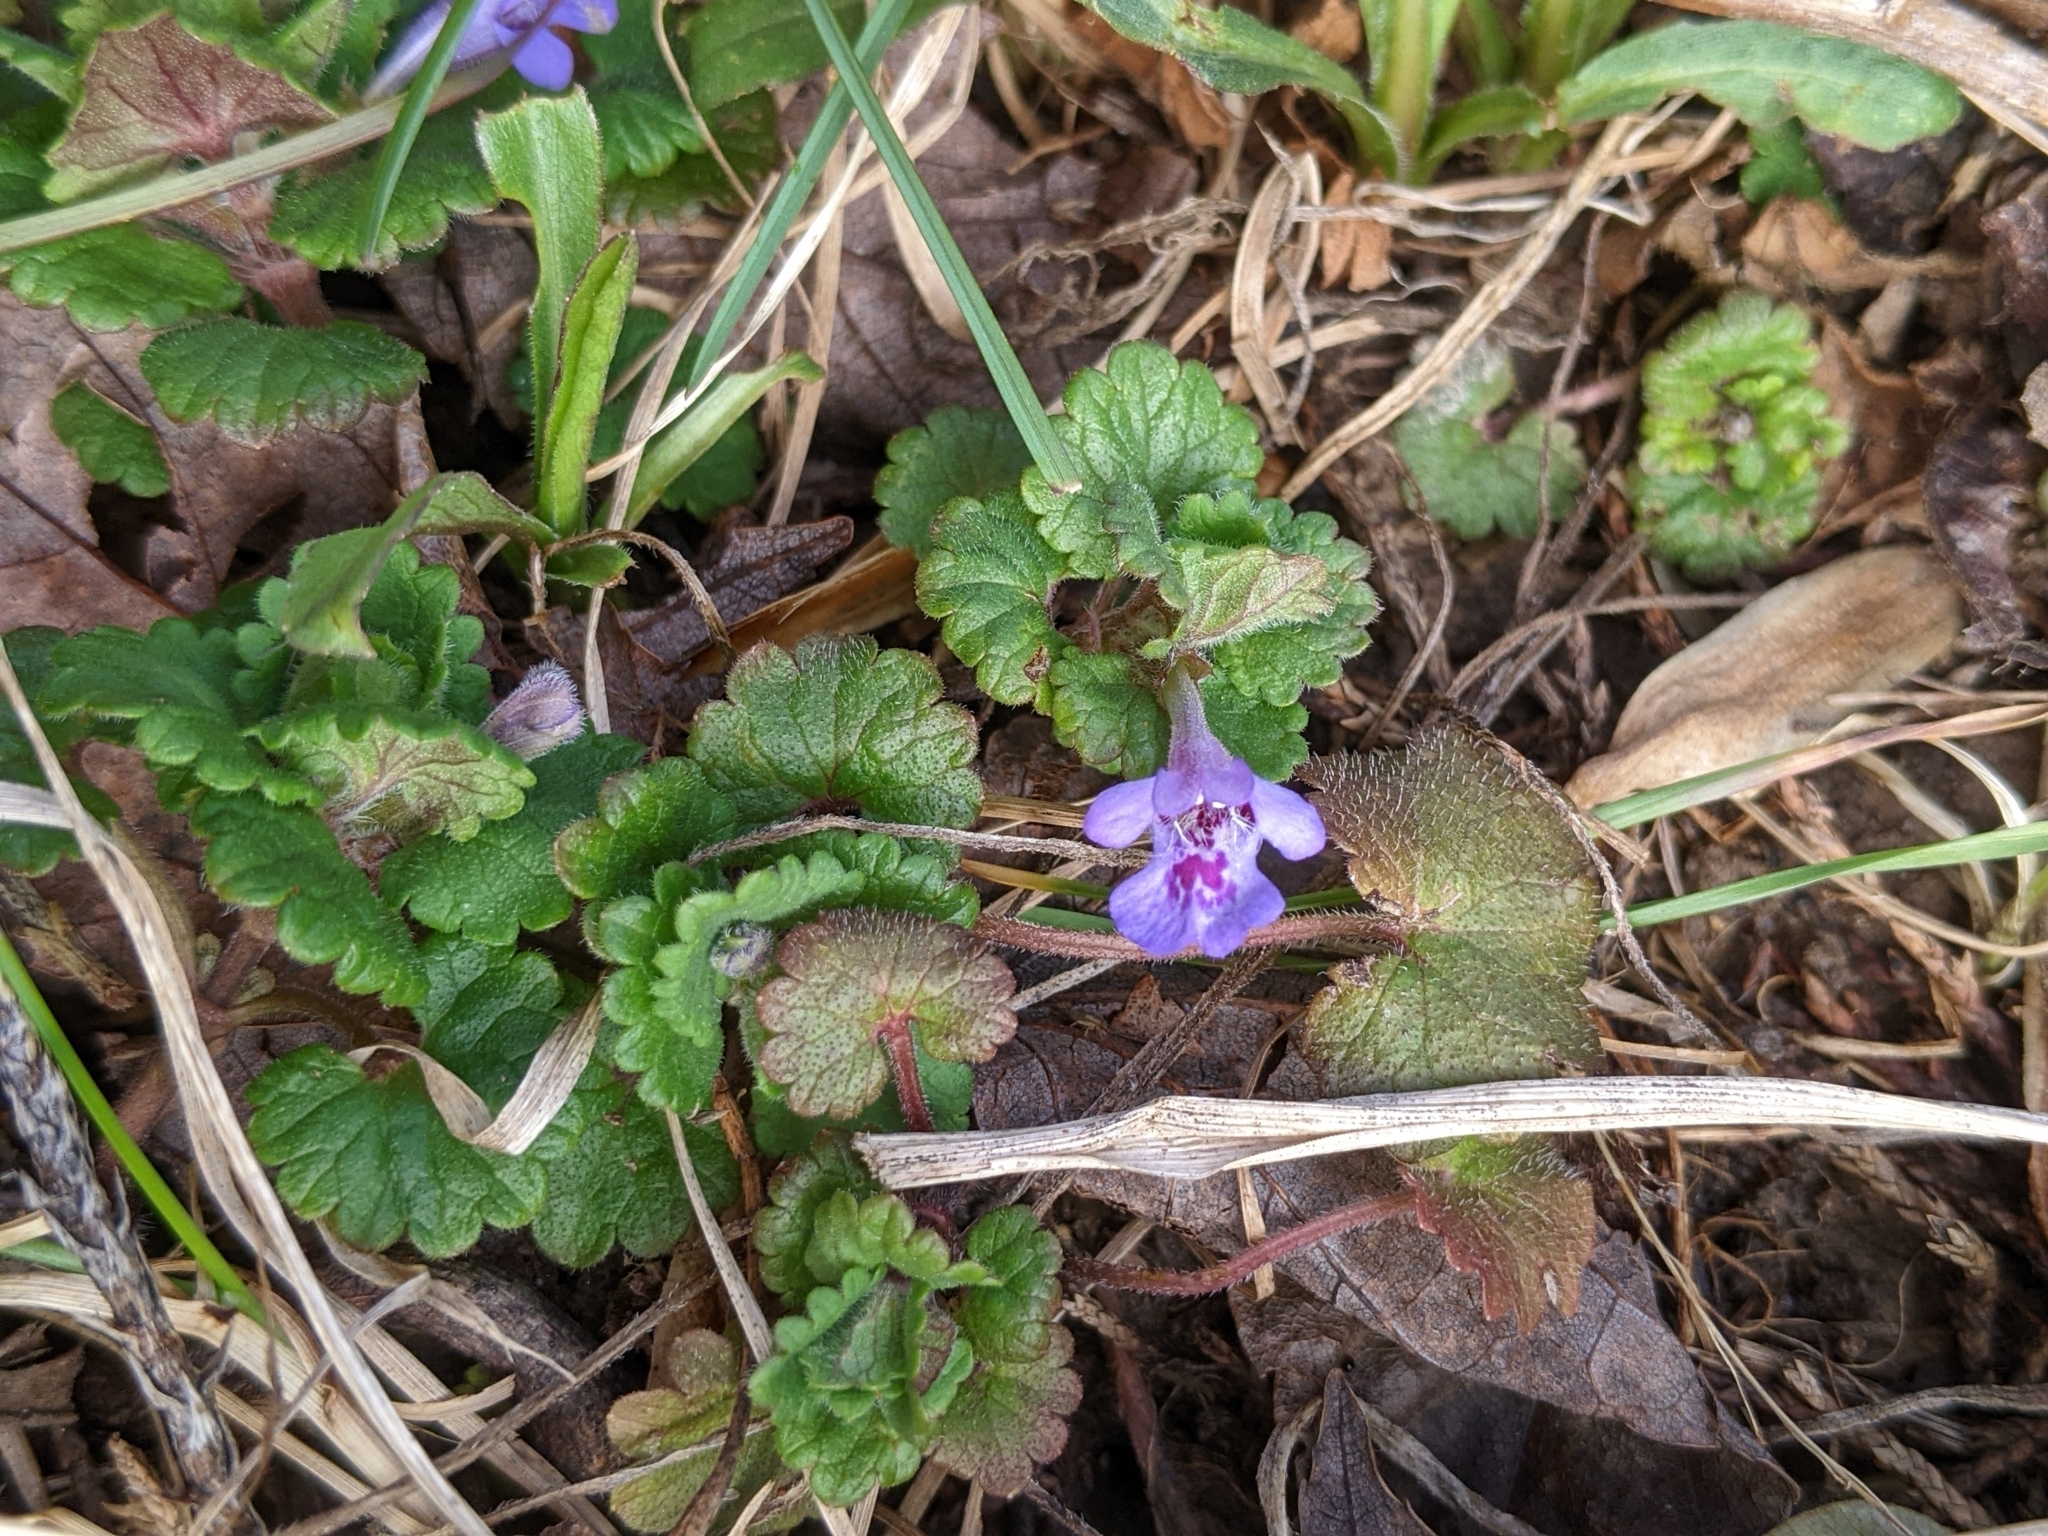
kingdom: Plantae
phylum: Tracheophyta
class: Magnoliopsida
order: Lamiales
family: Lamiaceae
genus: Glechoma
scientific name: Glechoma hederacea
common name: Ground ivy
